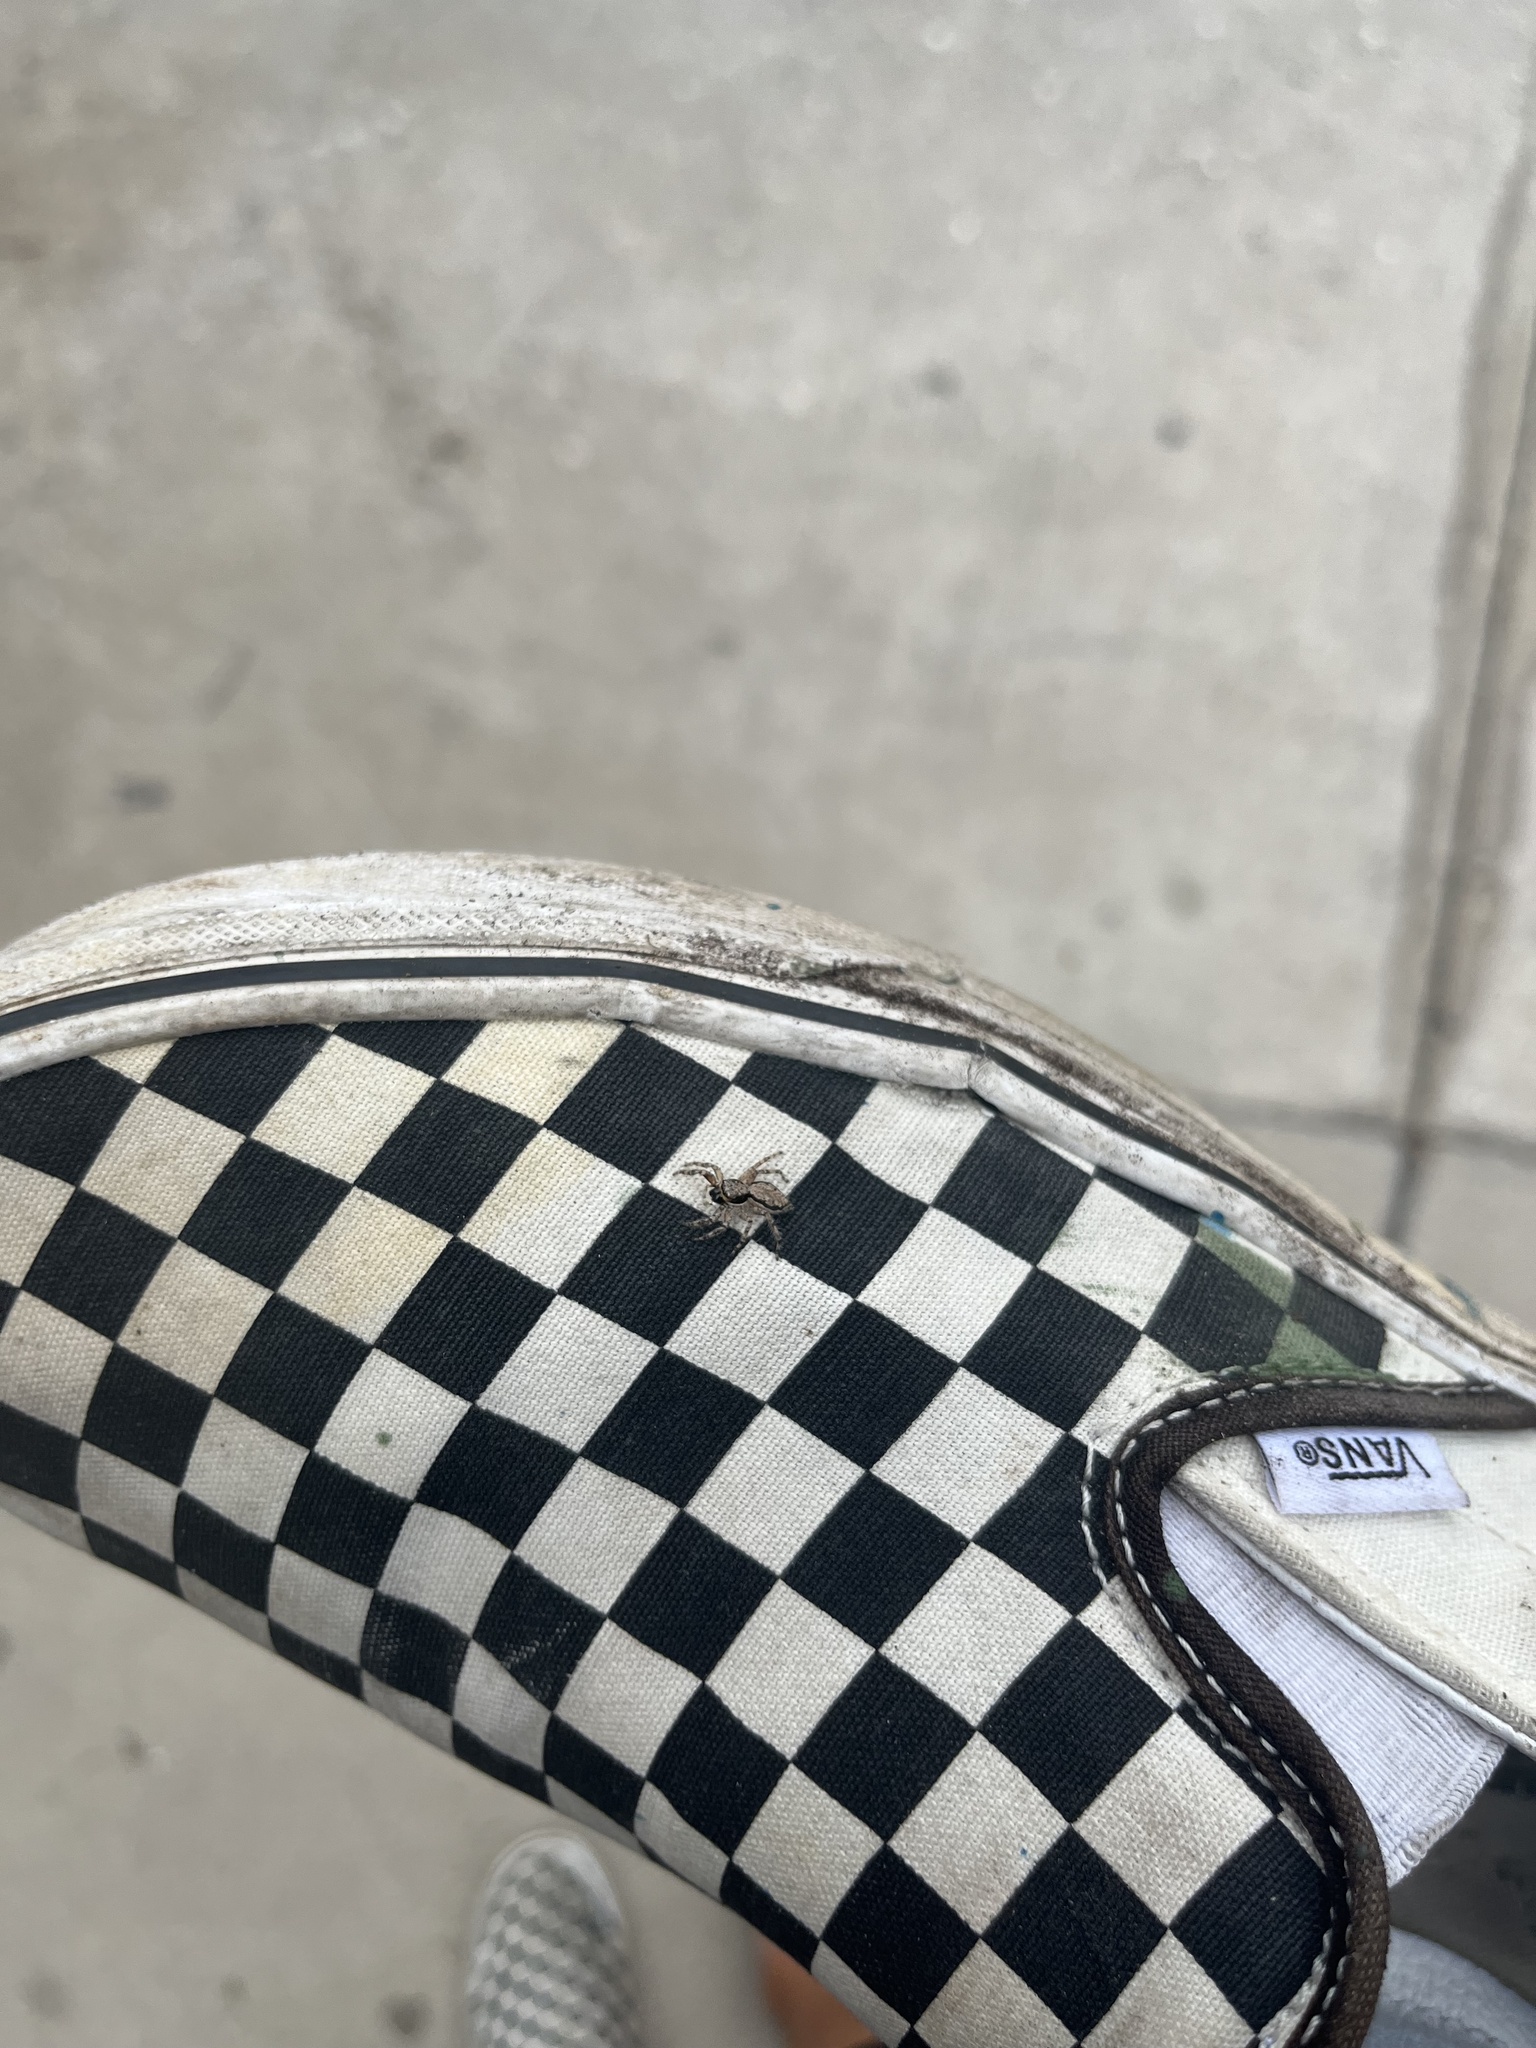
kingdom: Animalia
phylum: Arthropoda
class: Arachnida
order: Araneae
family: Salticidae
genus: Menemerus
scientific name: Menemerus bivittatus
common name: Gray wall jumper
